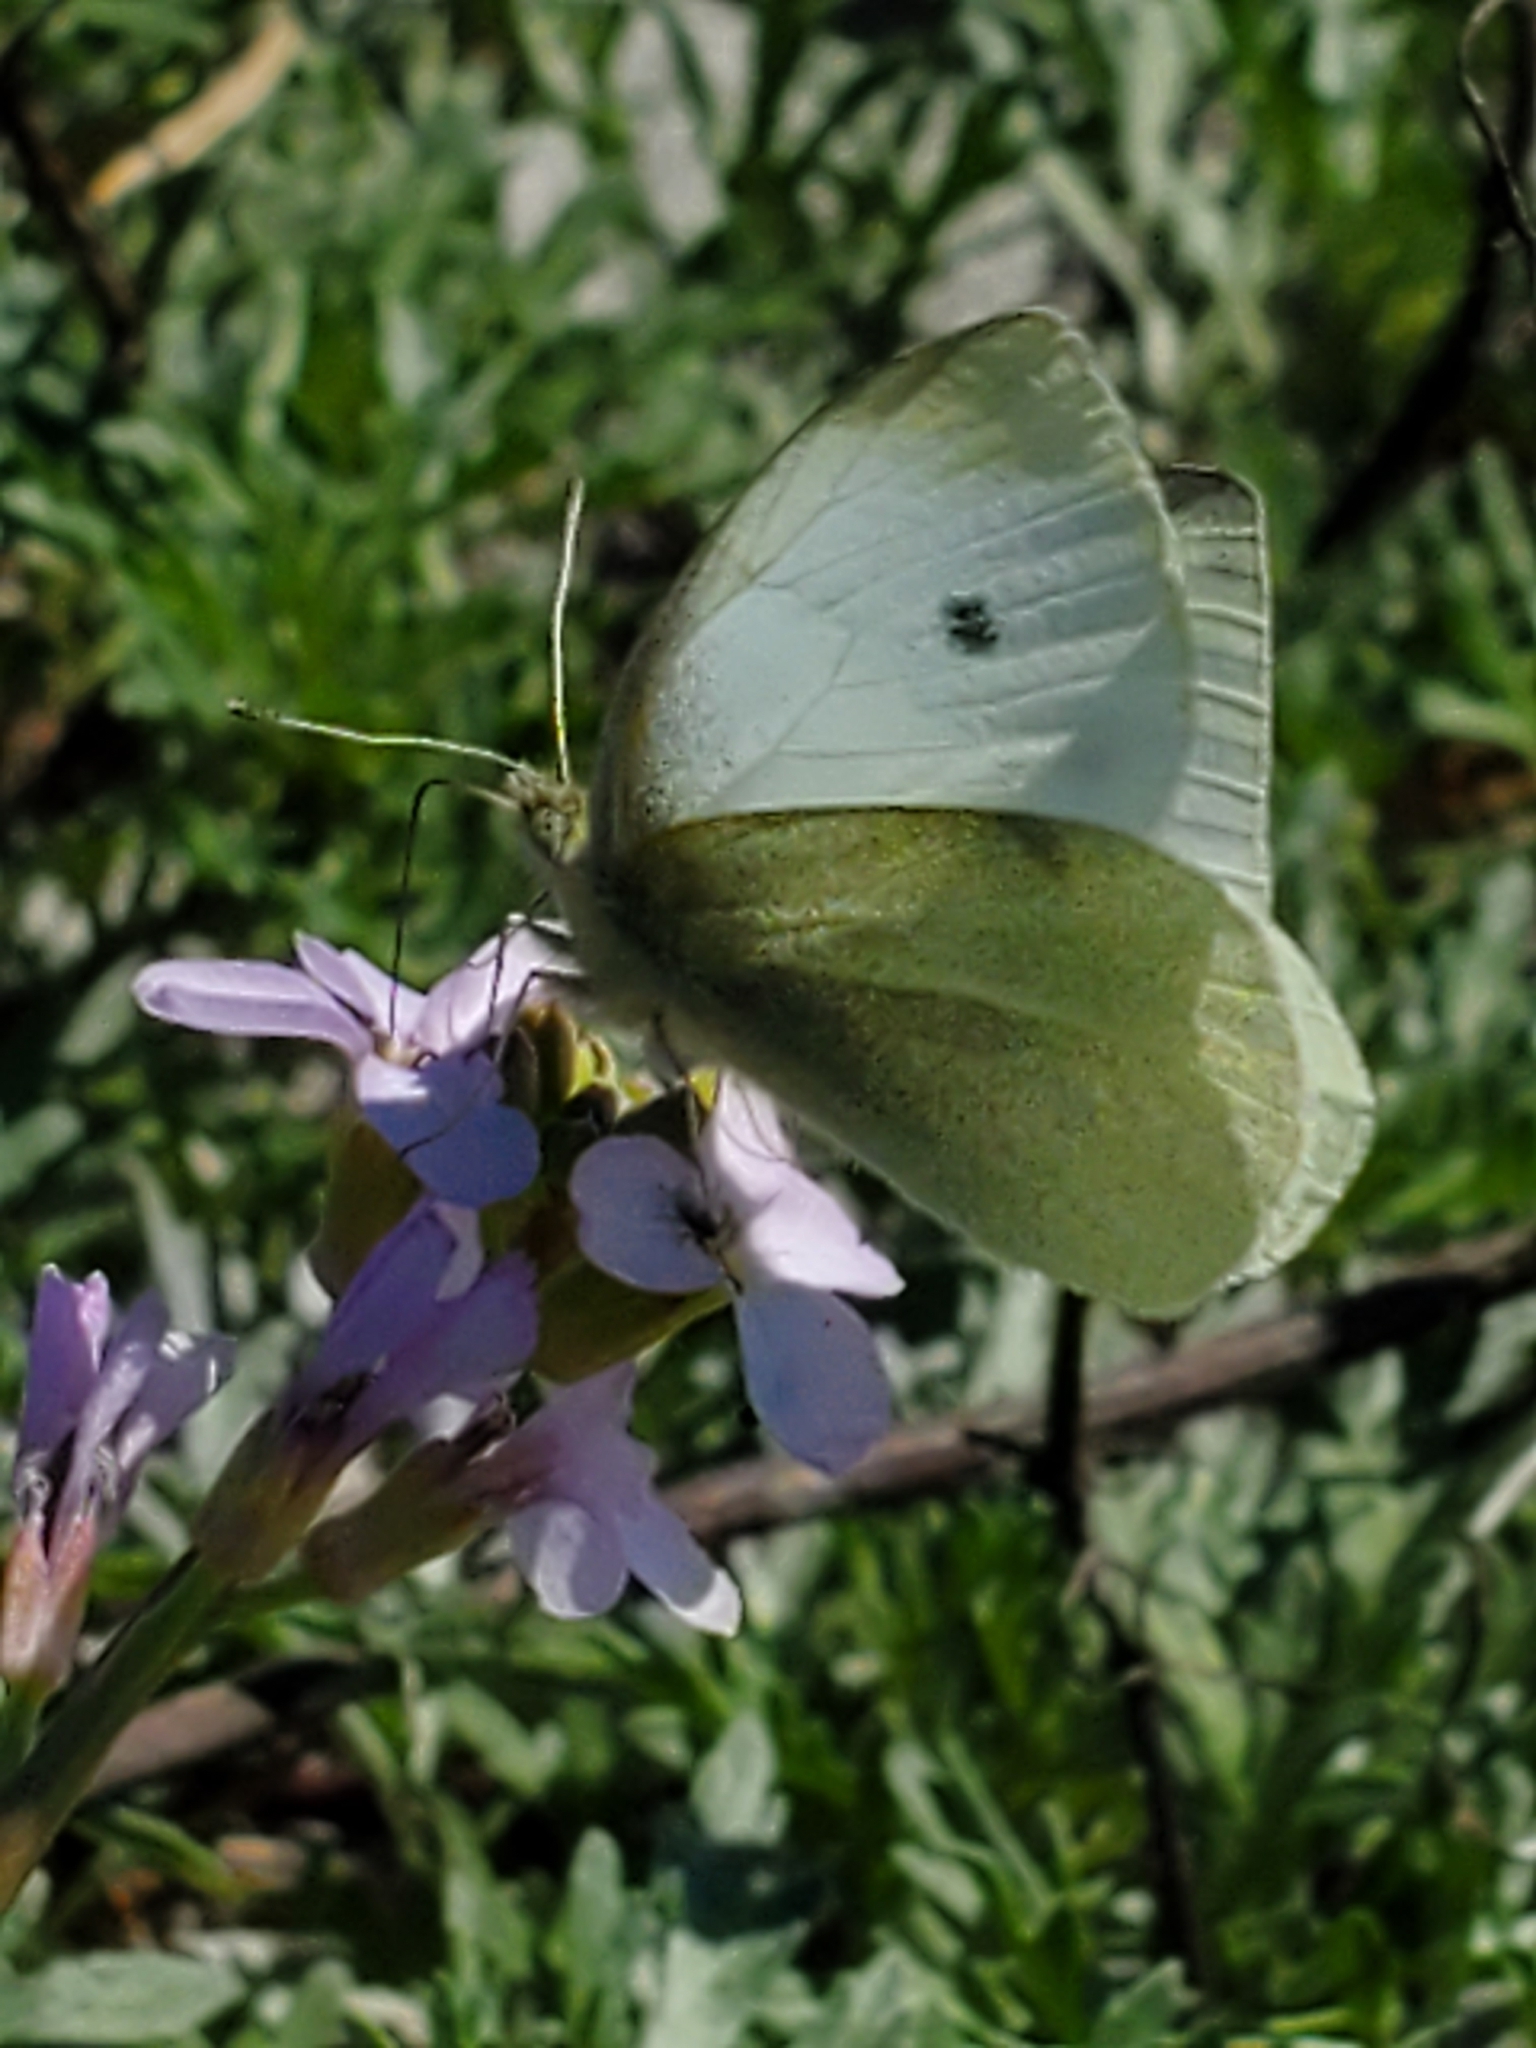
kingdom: Animalia
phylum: Arthropoda
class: Insecta
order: Lepidoptera
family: Pieridae
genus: Pieris
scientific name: Pieris rapae
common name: Small white
